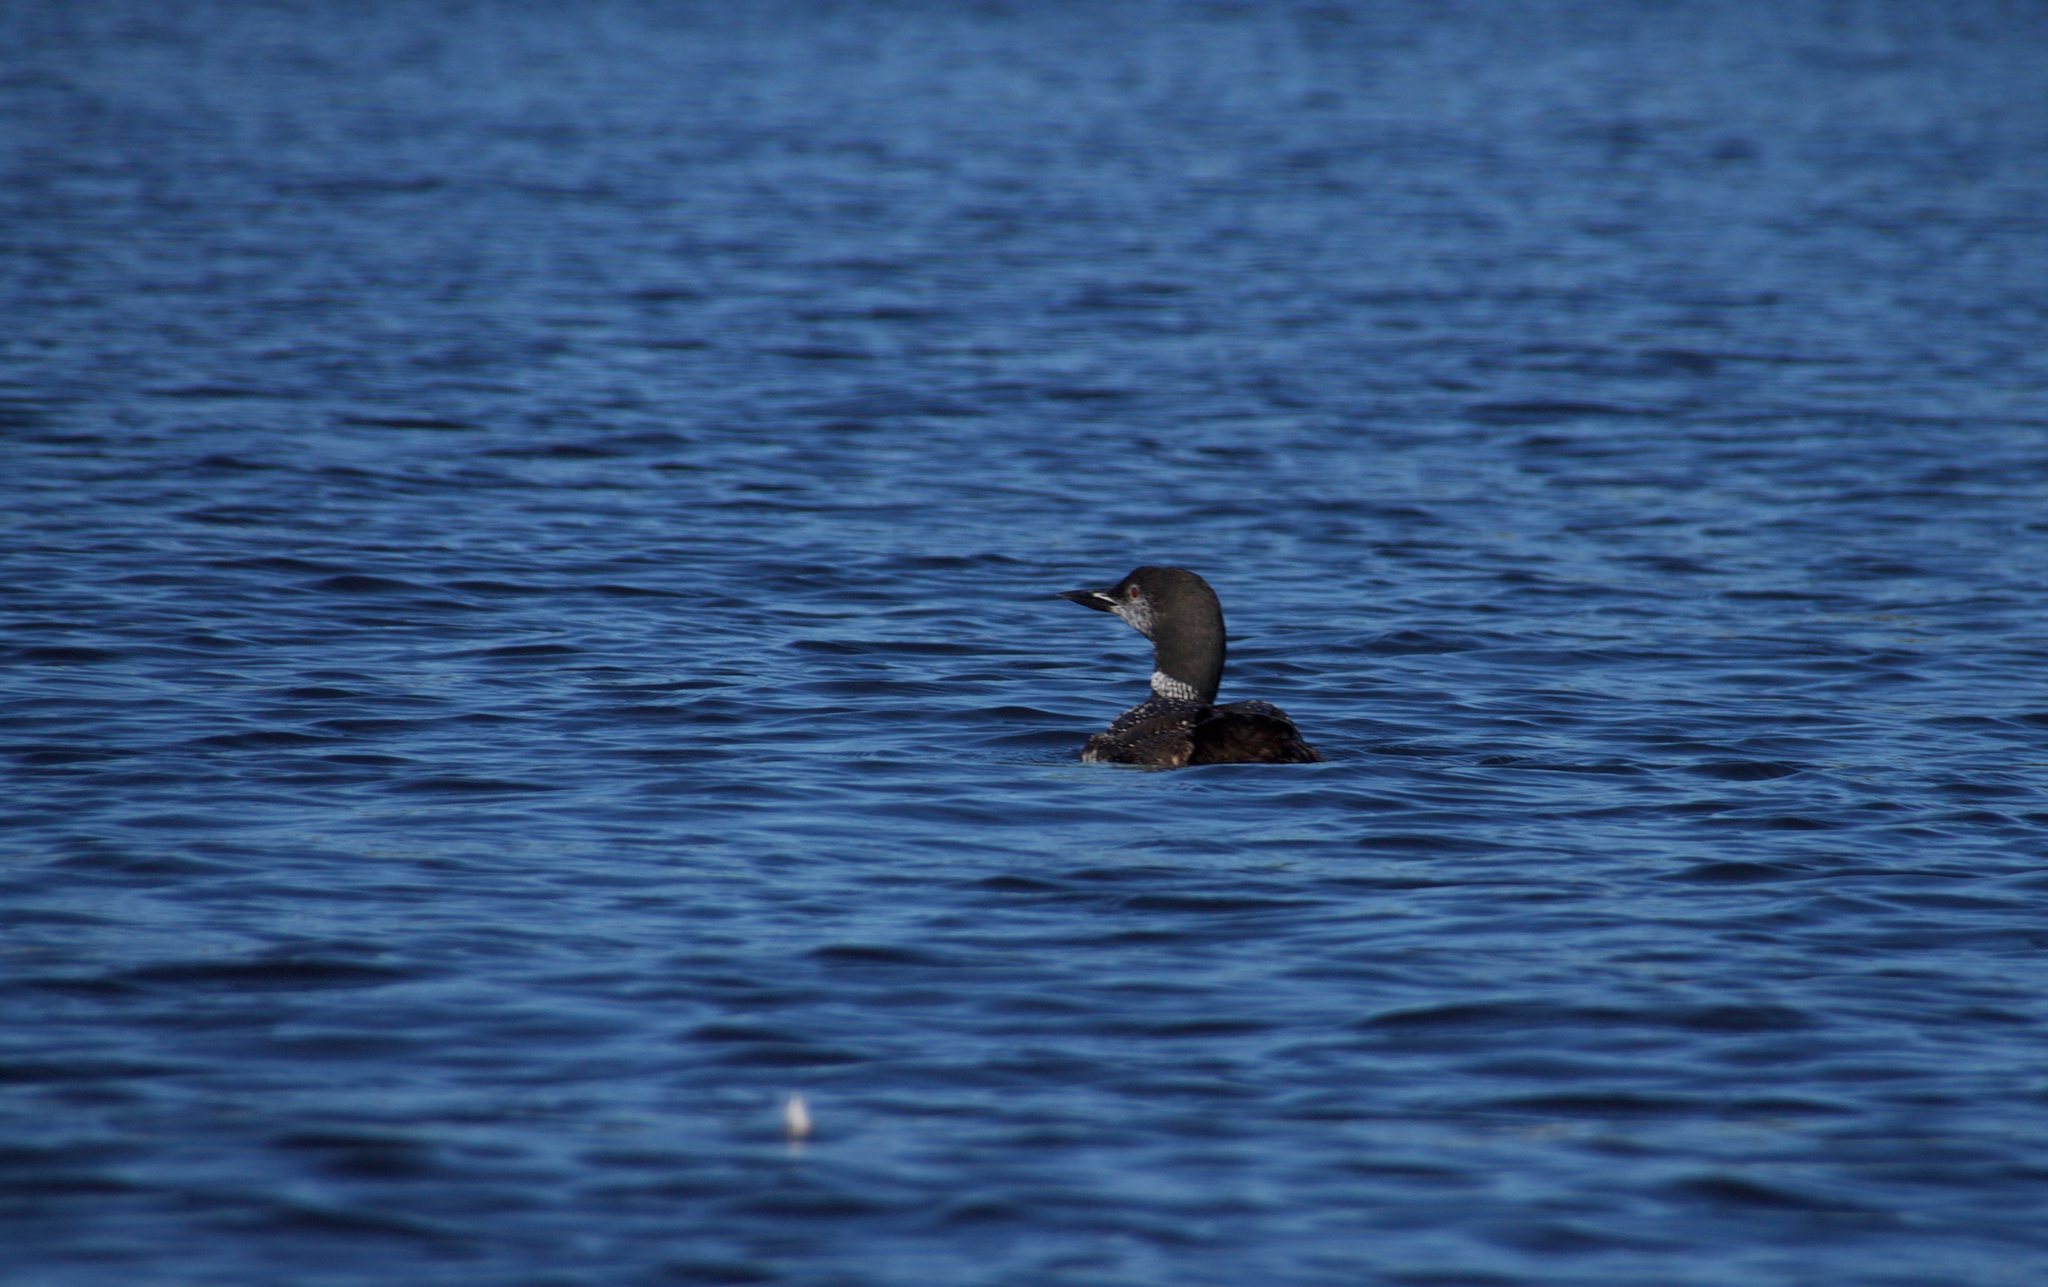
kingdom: Animalia
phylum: Chordata
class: Aves
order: Gaviiformes
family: Gaviidae
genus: Gavia
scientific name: Gavia immer
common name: Common loon
